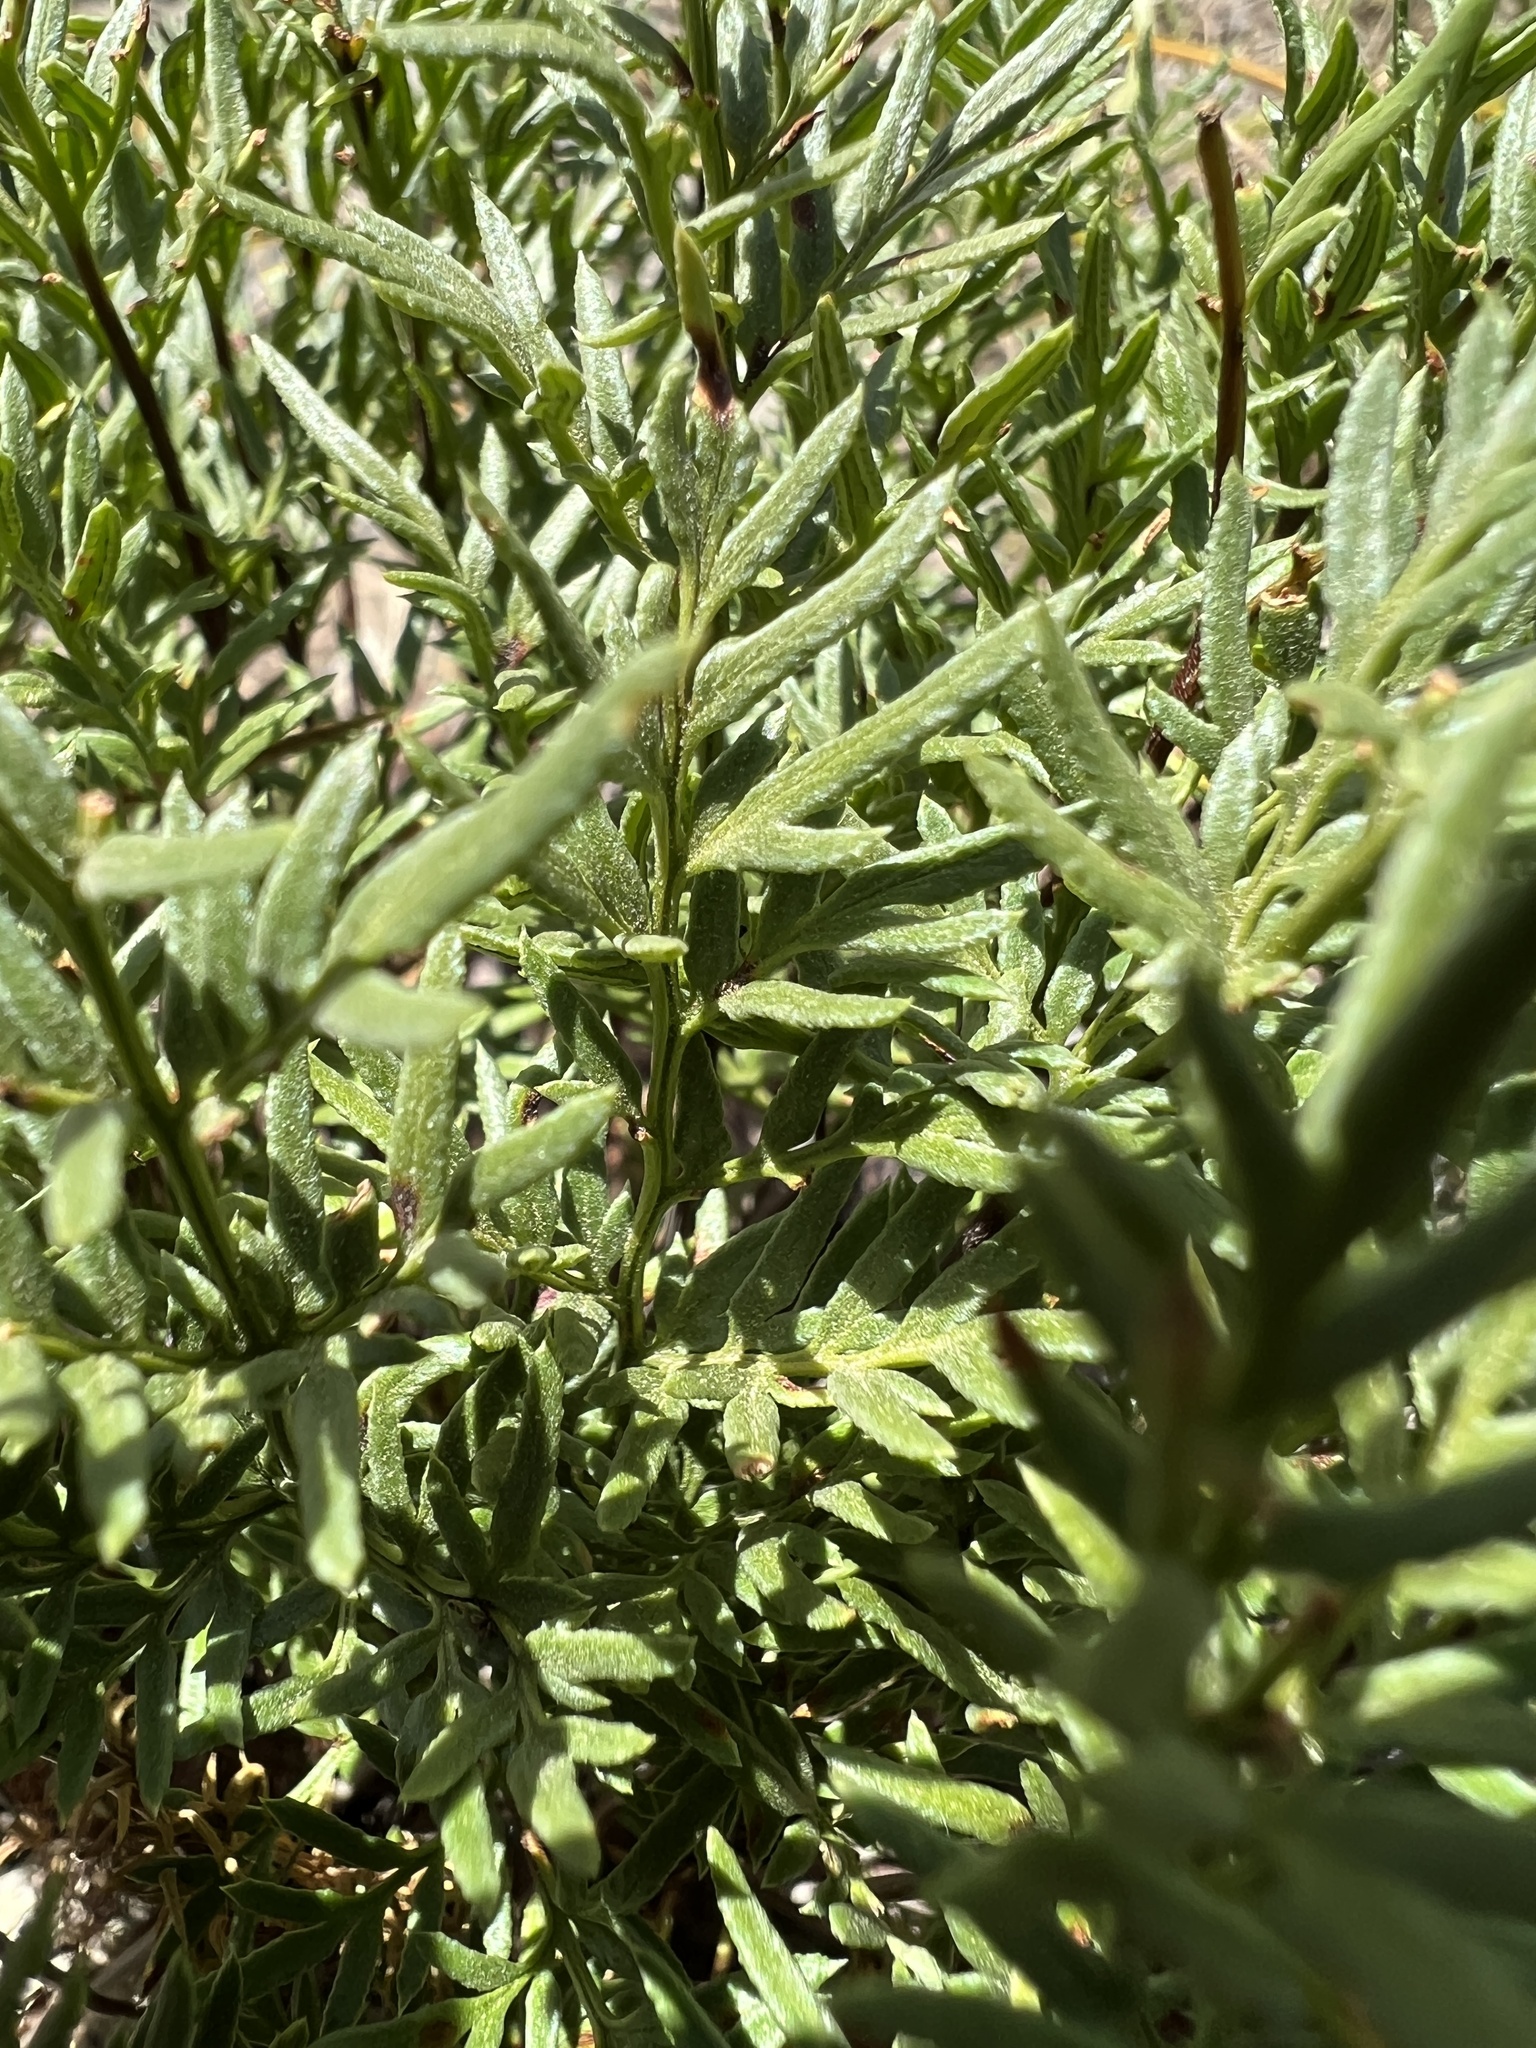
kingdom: Plantae
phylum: Tracheophyta
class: Polypodiopsida
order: Polypodiales
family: Pteridaceae
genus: Aspidotis
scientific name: Aspidotis densa
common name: Indian's dream
